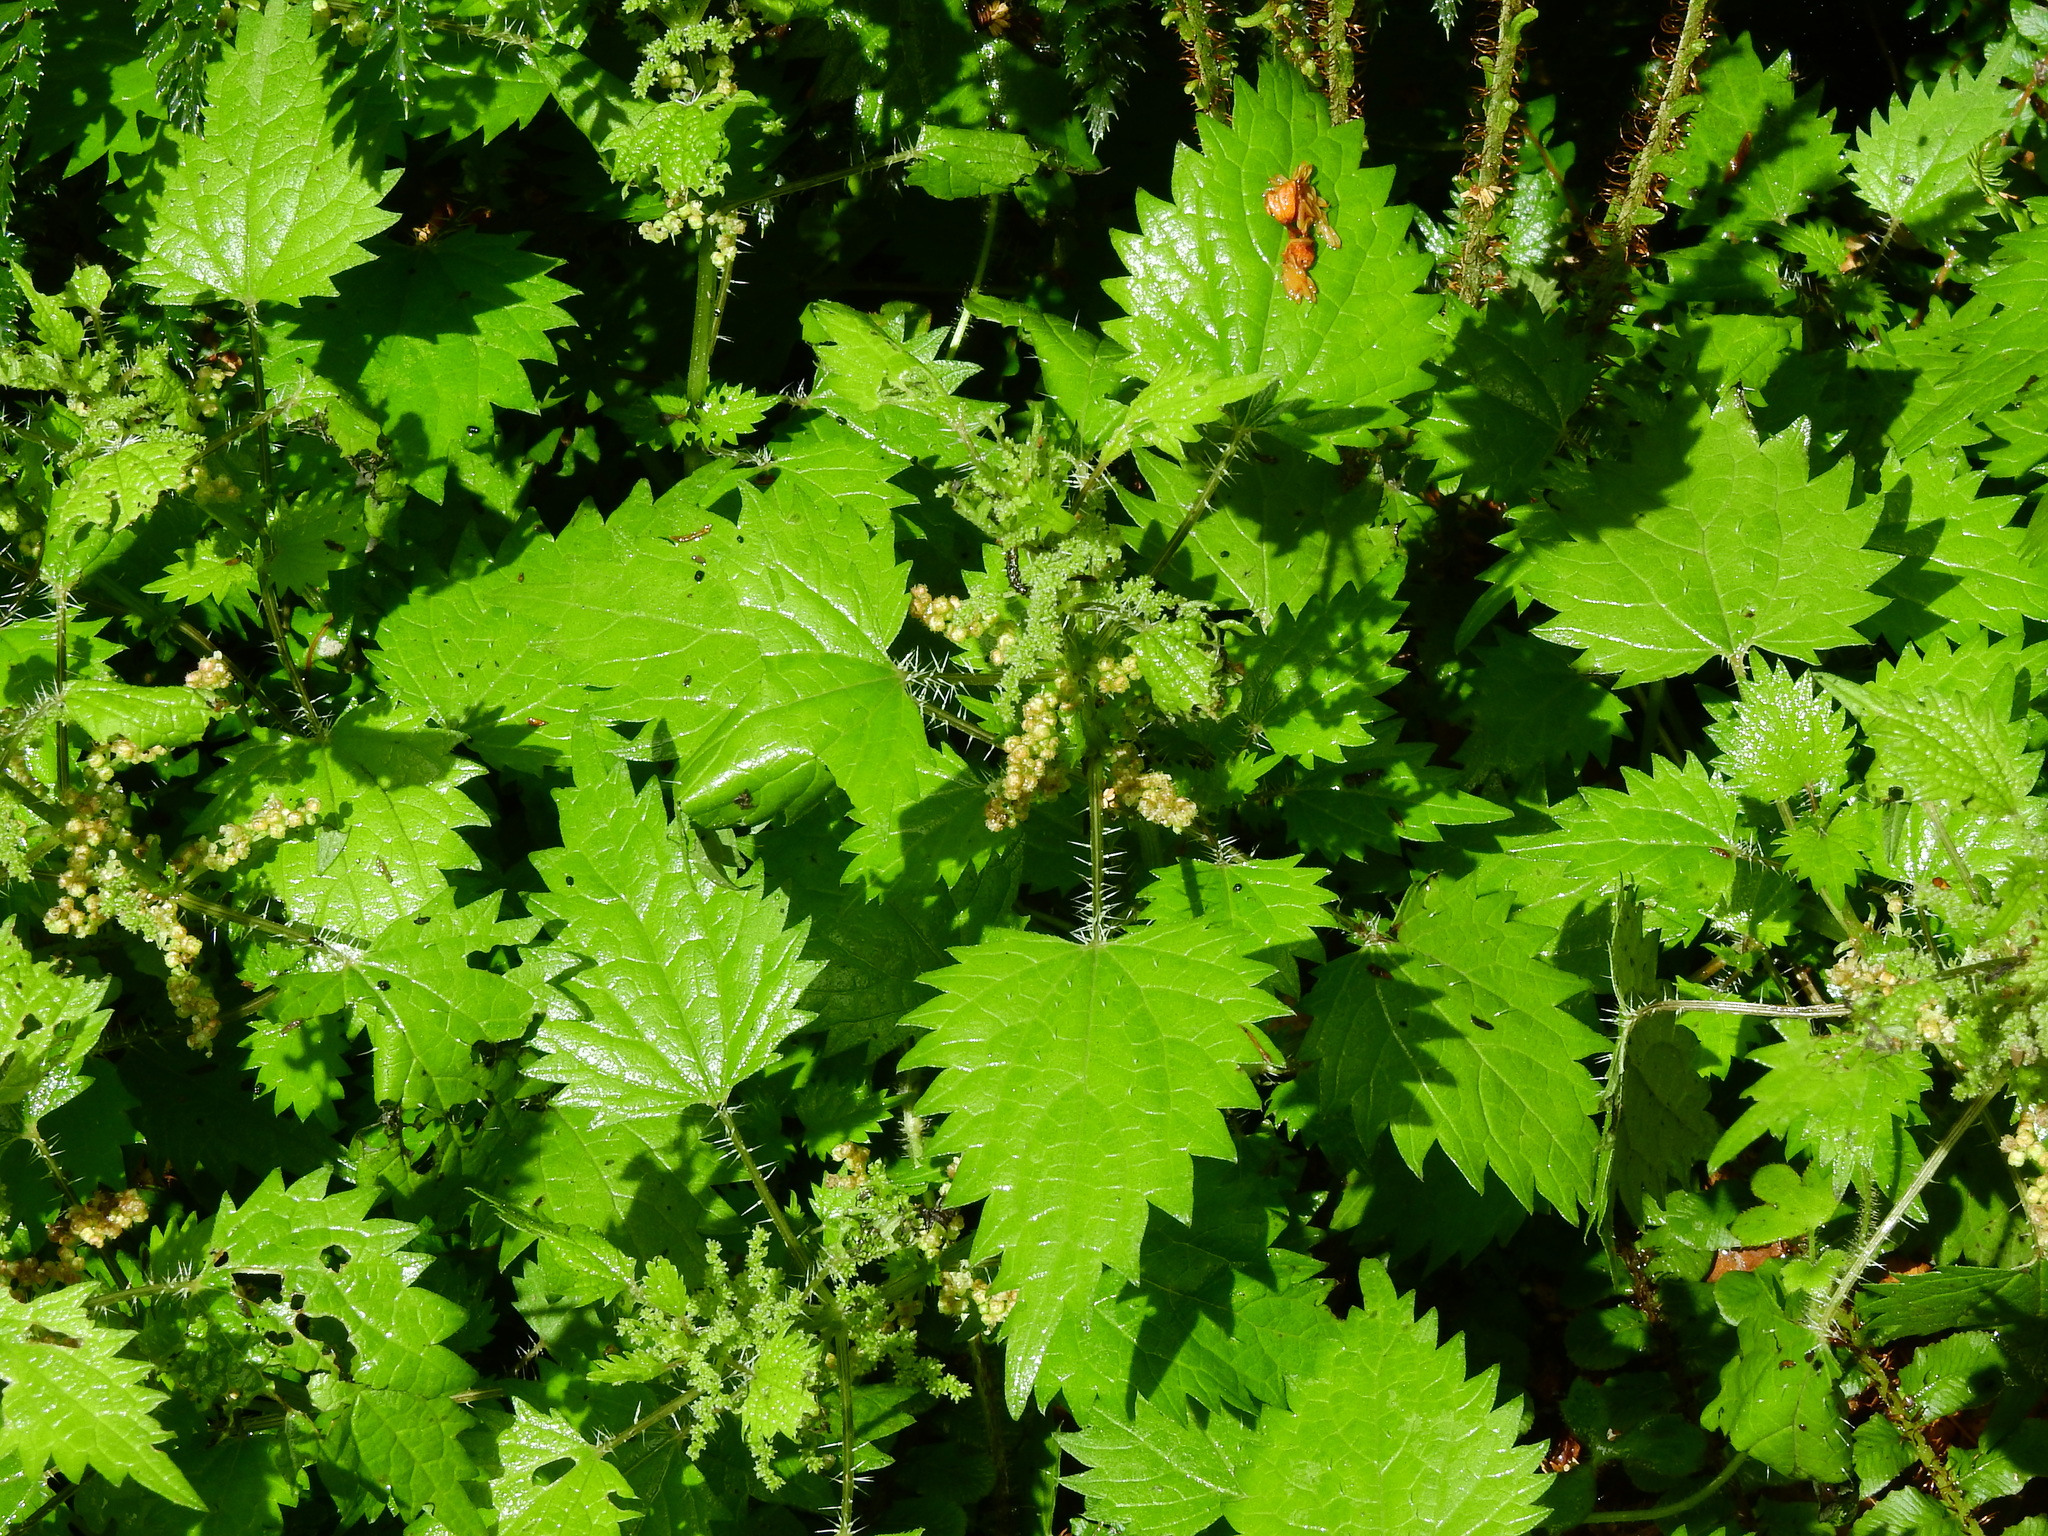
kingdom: Plantae
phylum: Tracheophyta
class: Magnoliopsida
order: Rosales
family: Urticaceae
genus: Urtica
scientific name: Urtica sykesii
